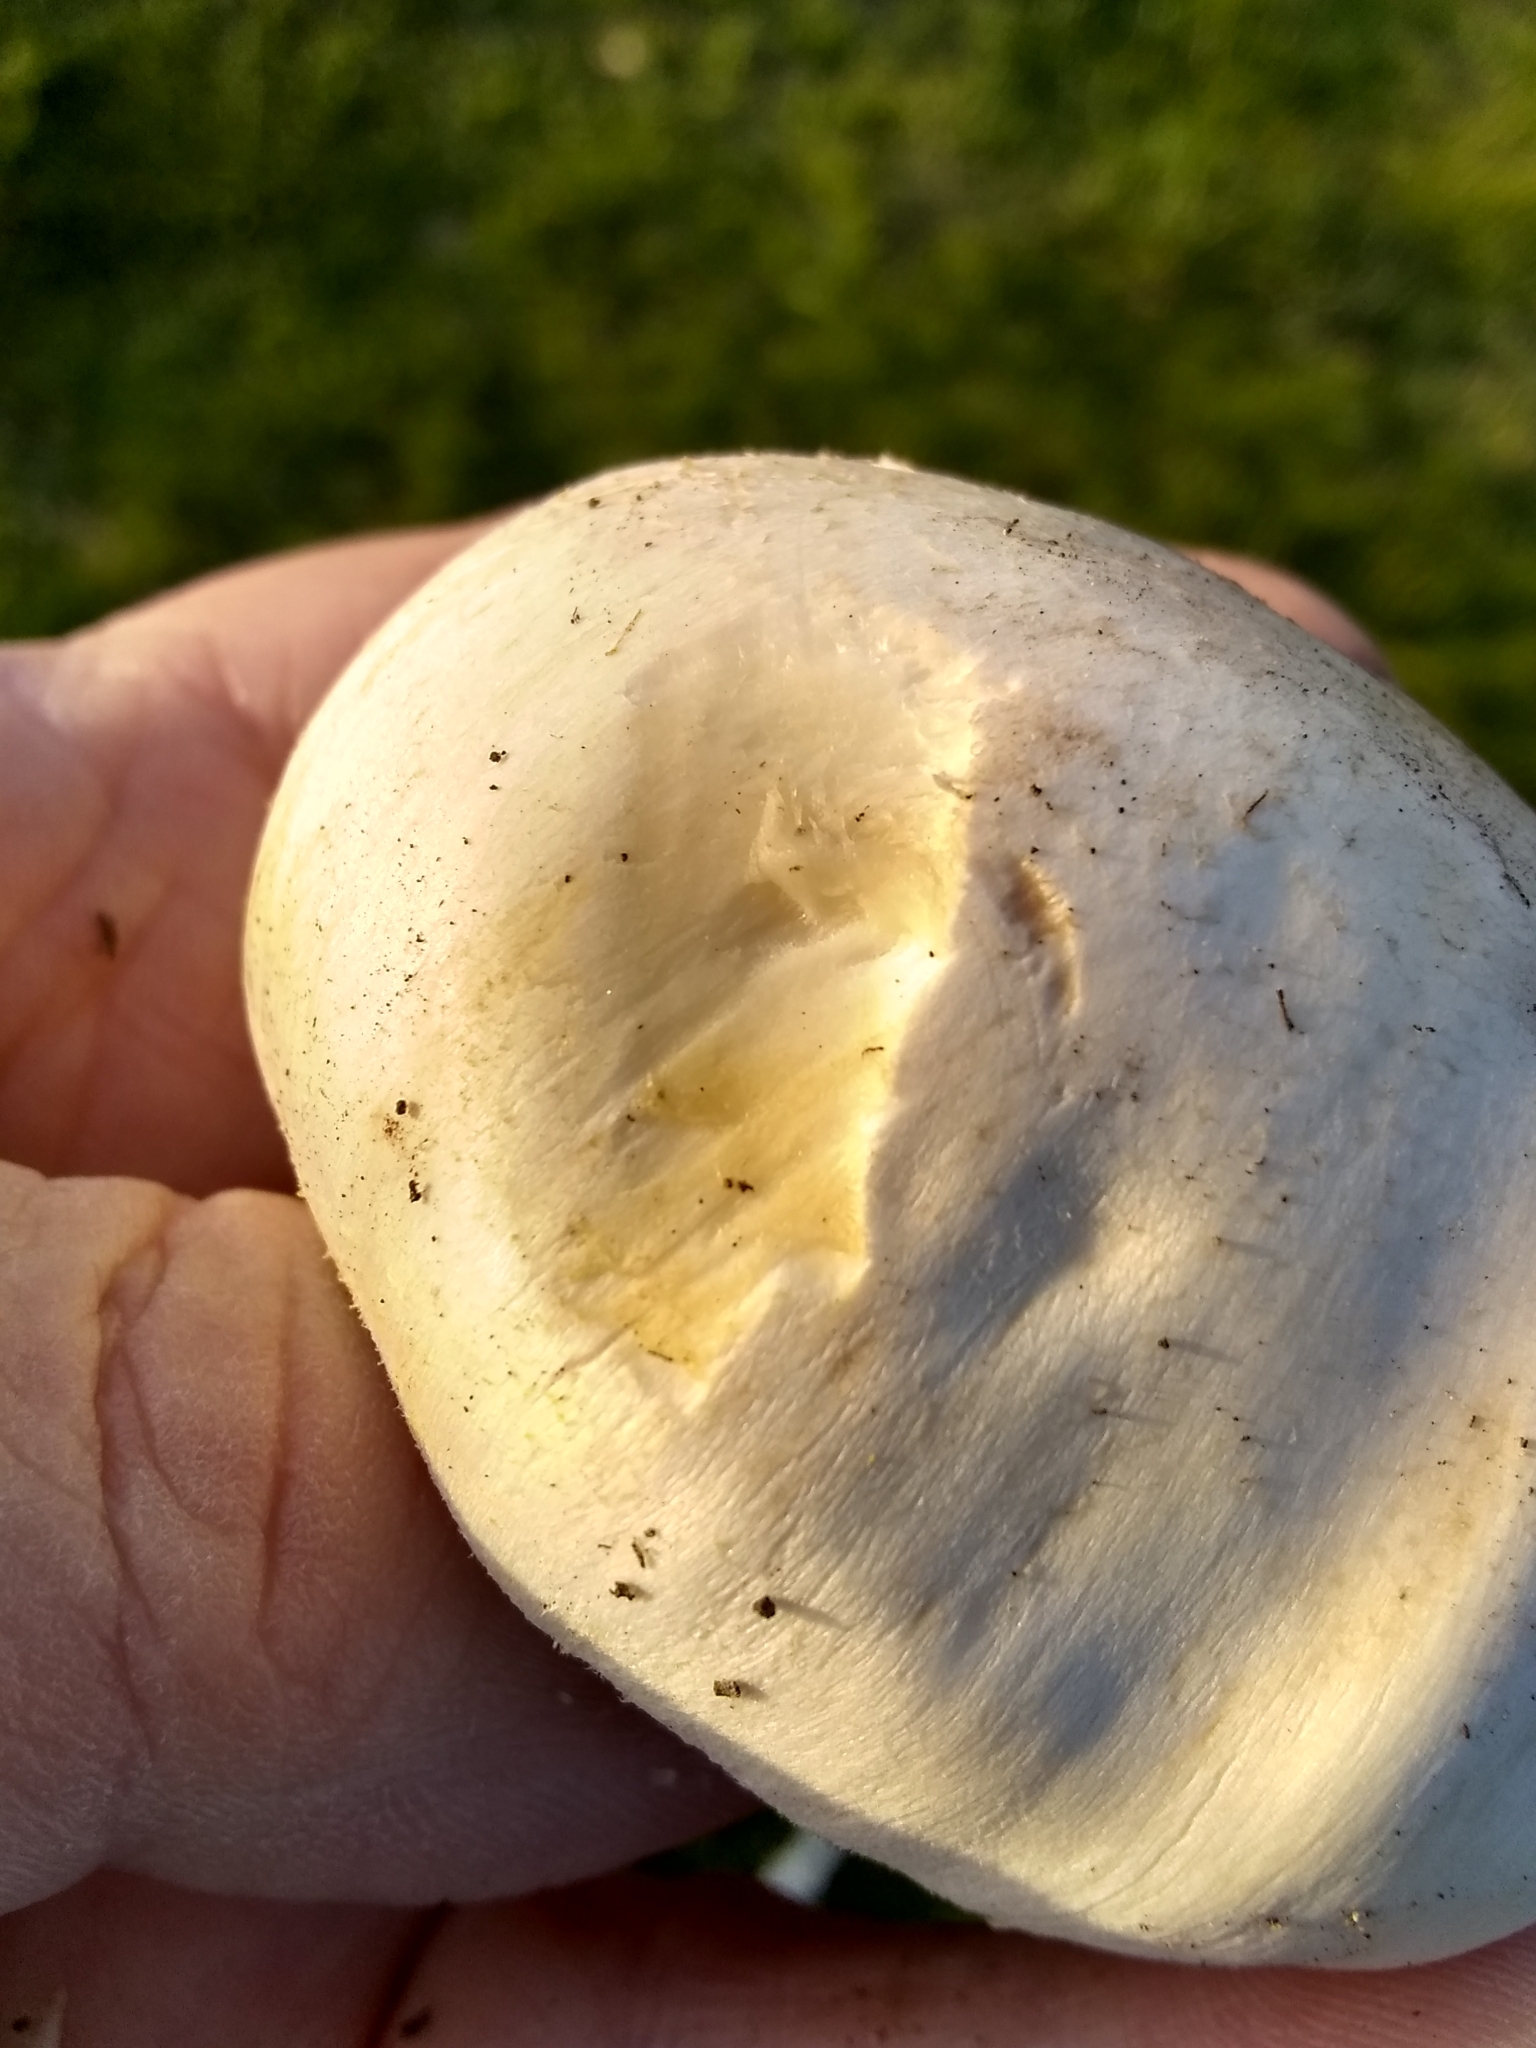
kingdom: Fungi
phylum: Basidiomycota
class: Agaricomycetes
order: Agaricales
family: Agaricaceae
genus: Agaricus
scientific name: Agaricus xanthodermus
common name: Yellow stainer
